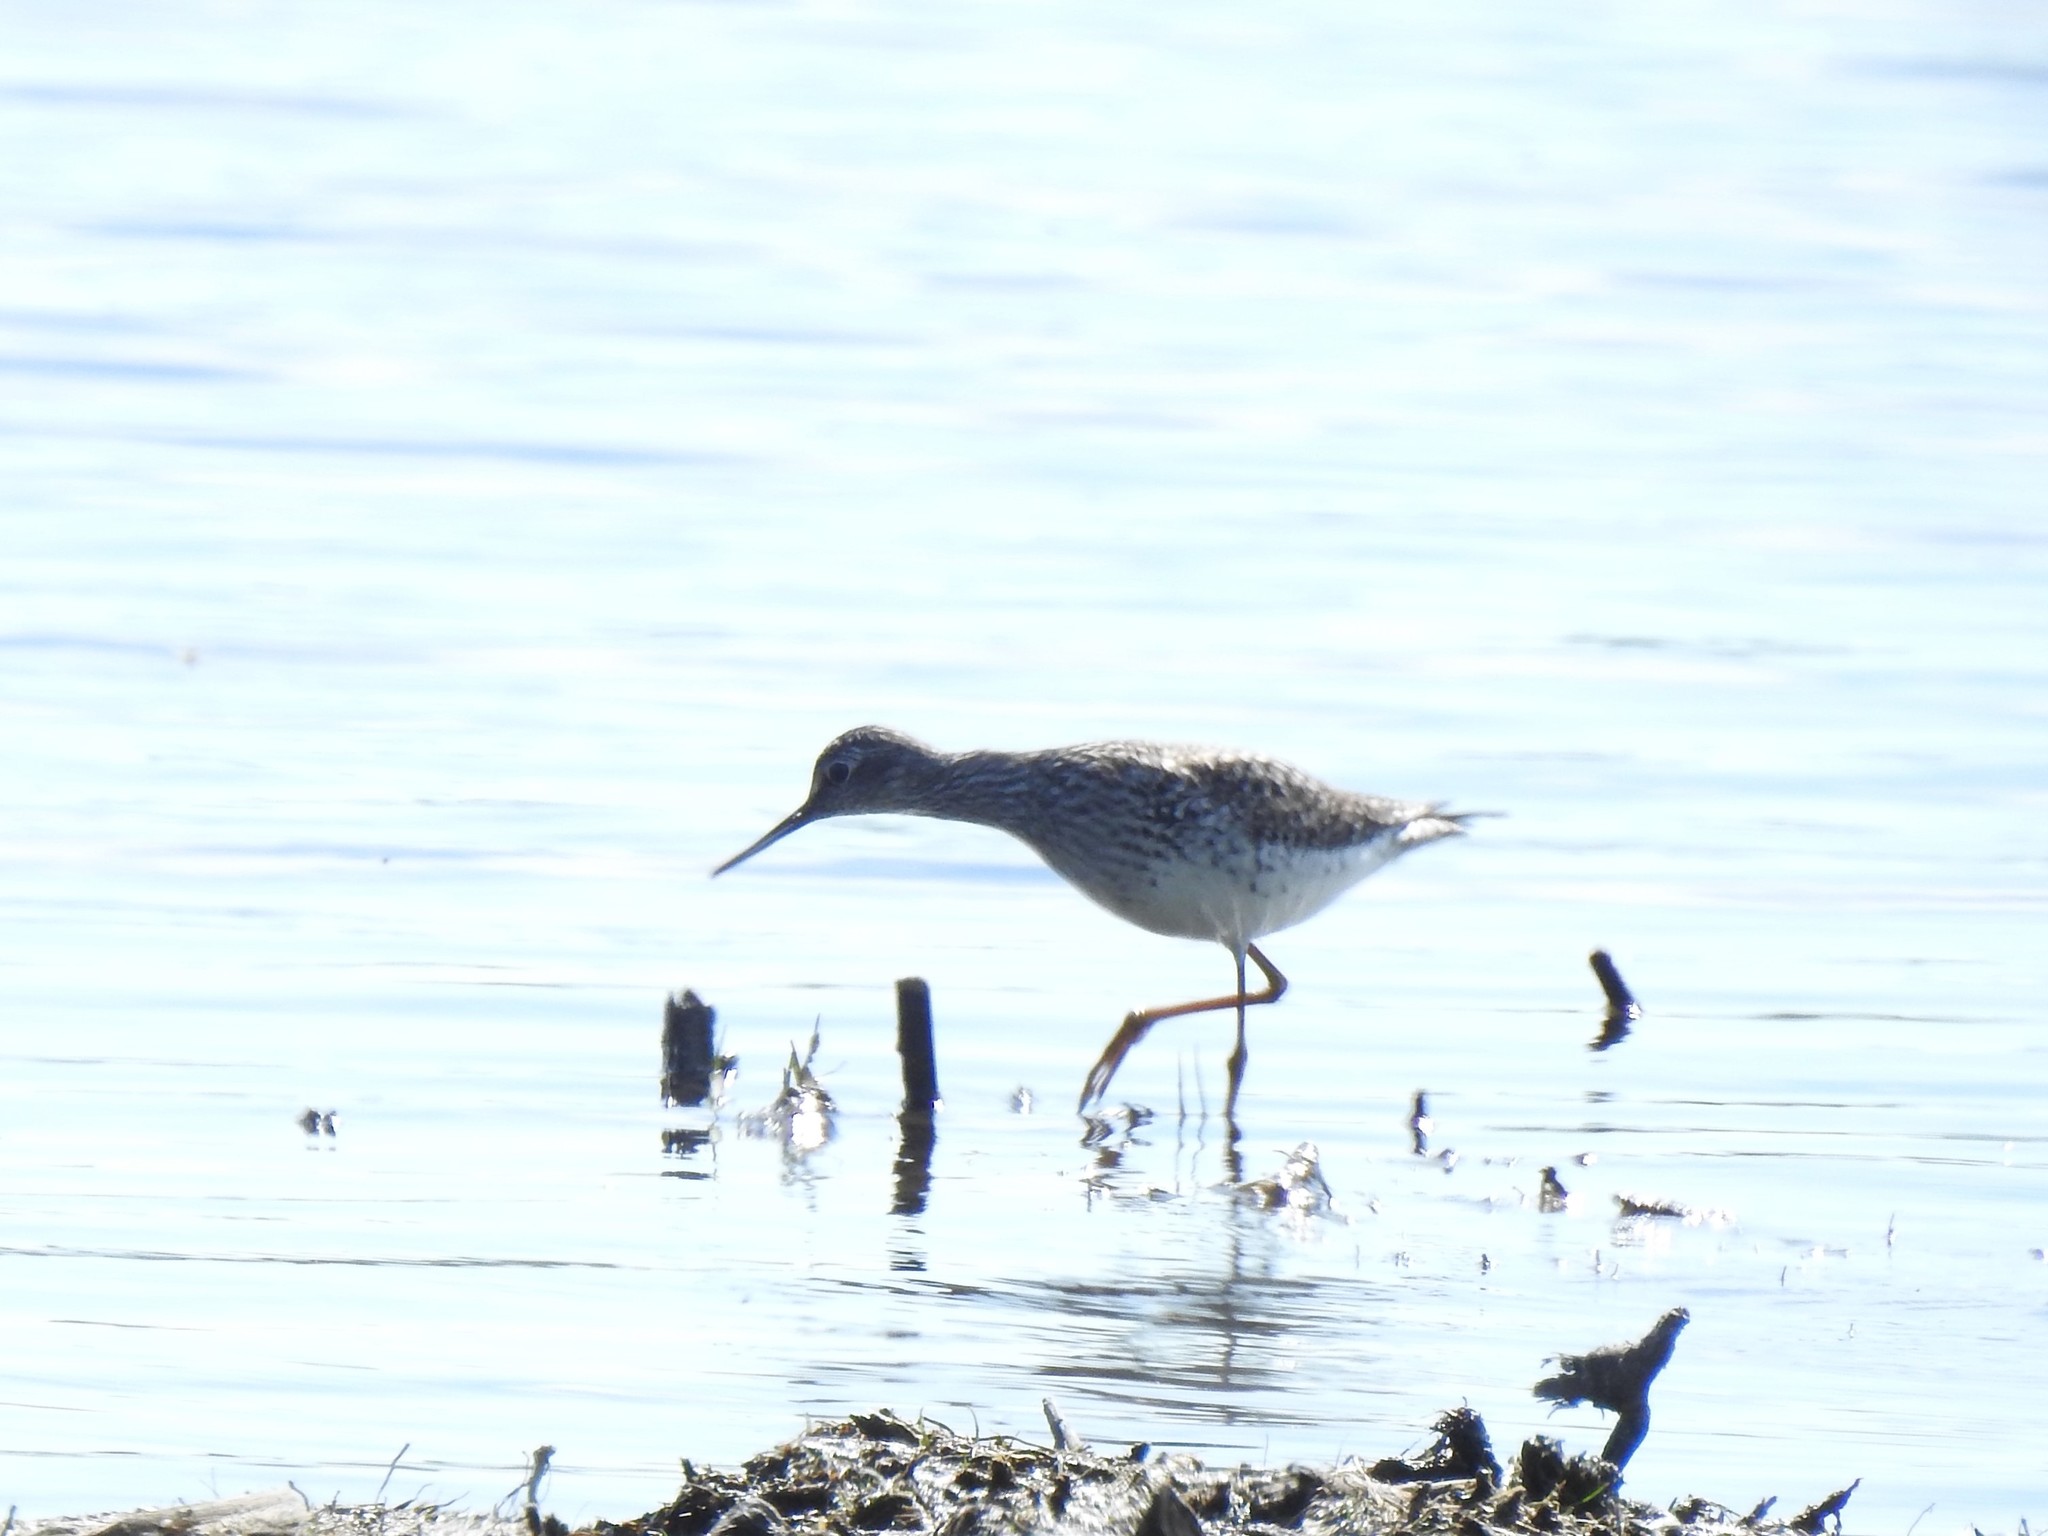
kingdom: Animalia
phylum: Chordata
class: Aves
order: Charadriiformes
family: Scolopacidae
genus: Tringa
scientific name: Tringa flavipes
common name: Lesser yellowlegs
